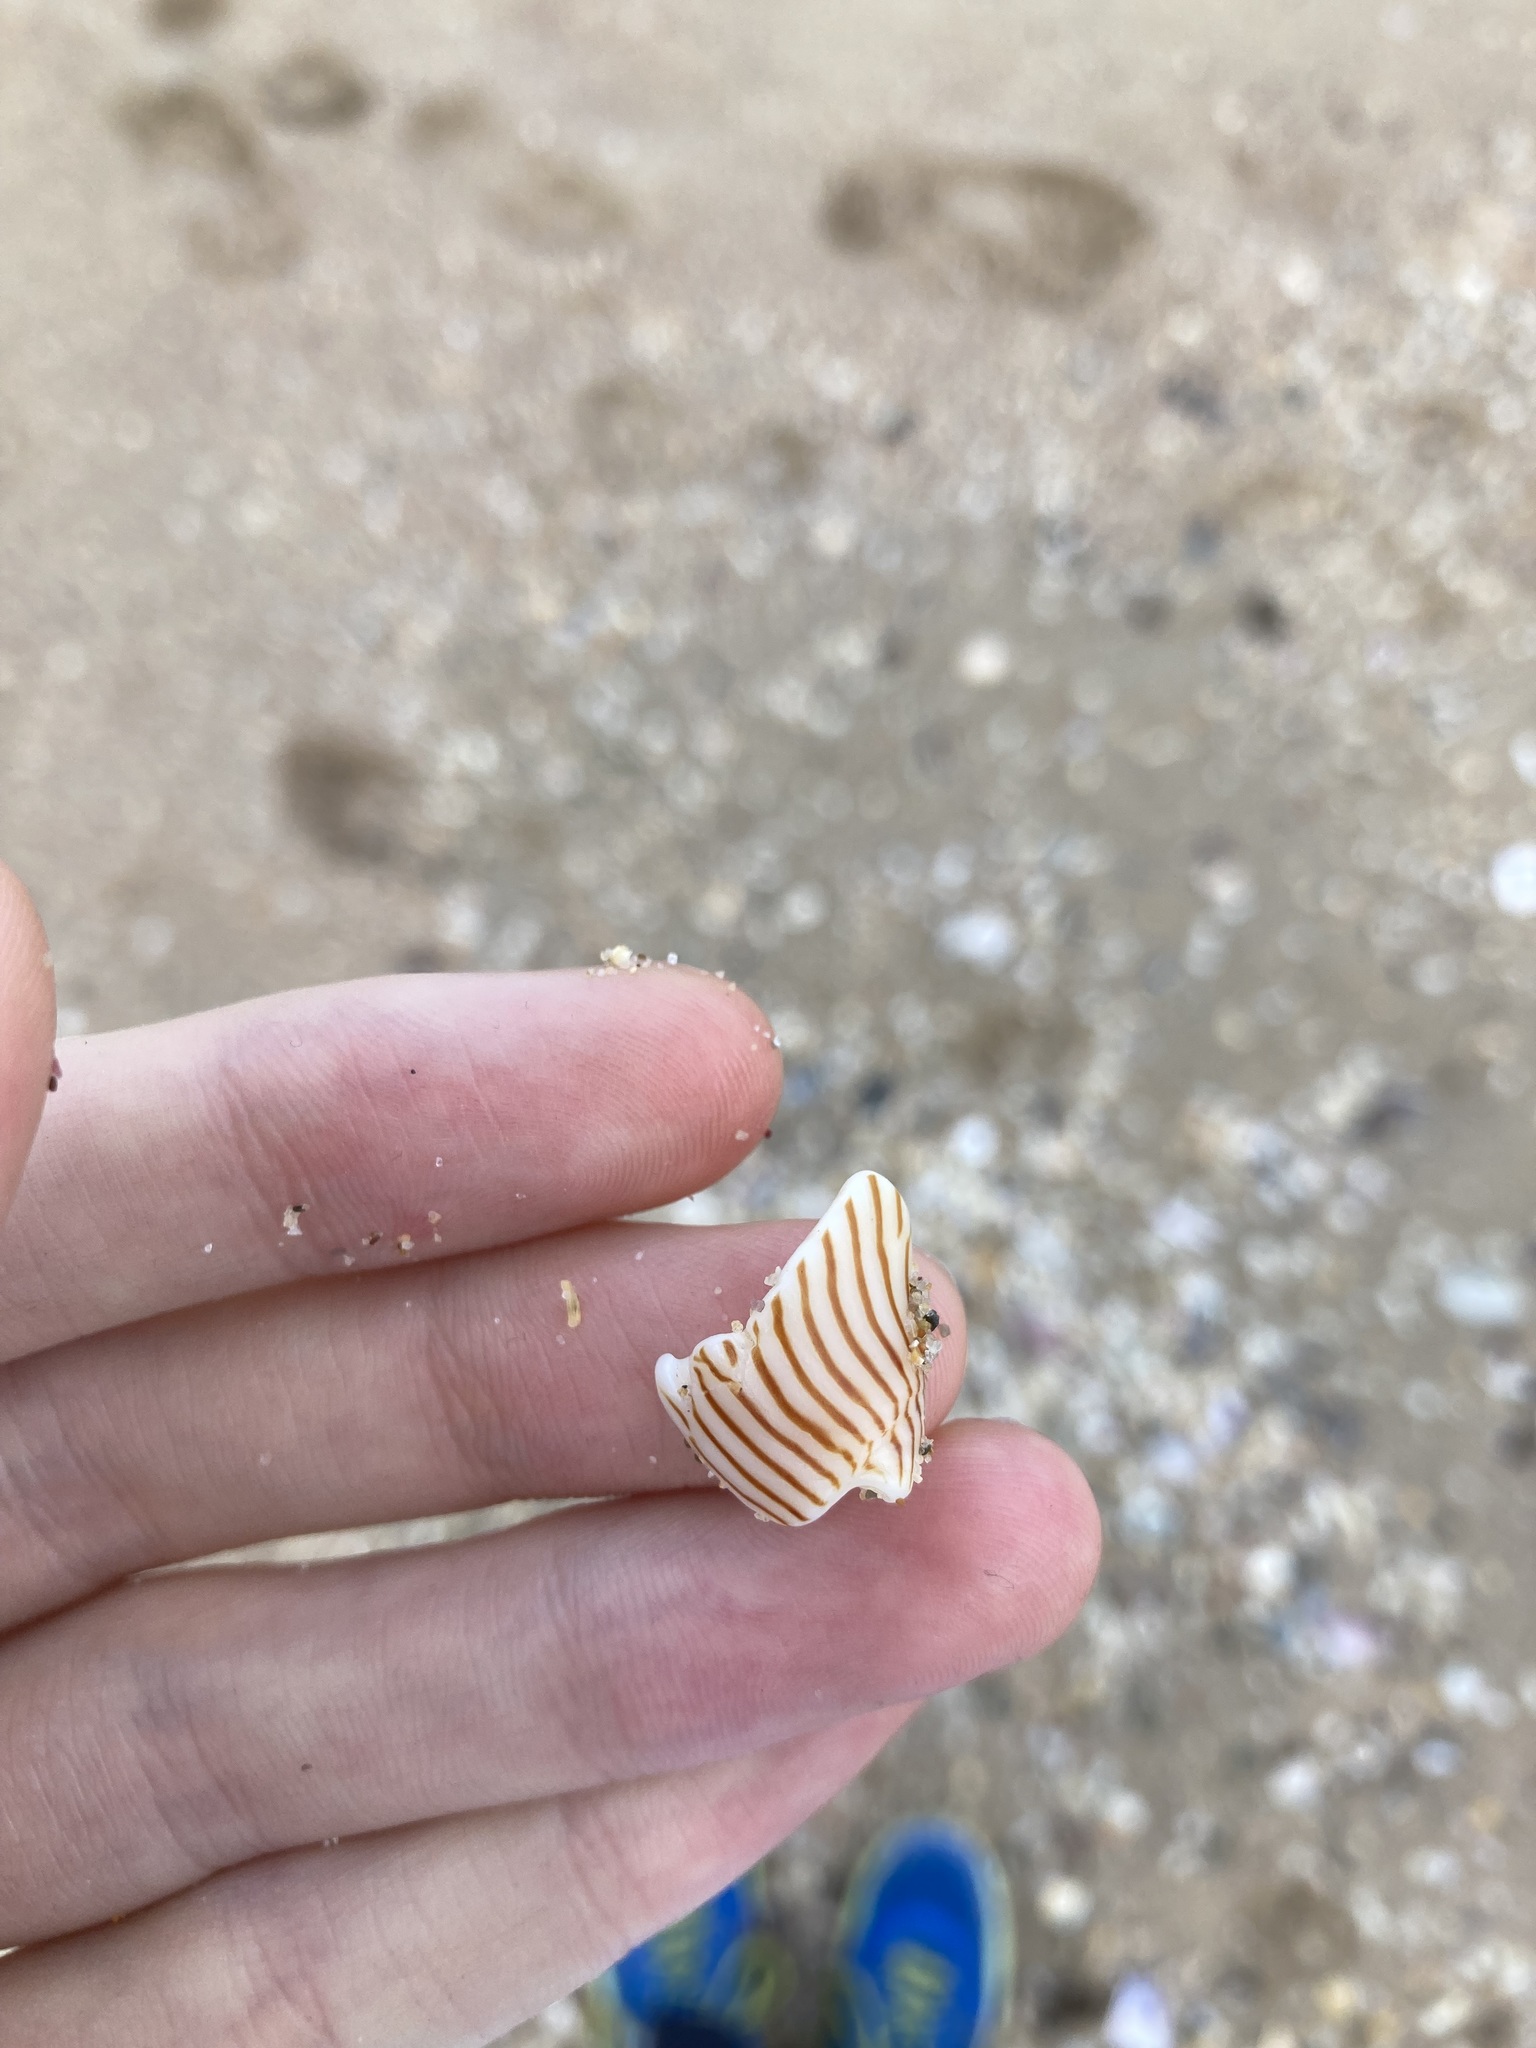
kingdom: Animalia
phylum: Mollusca
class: Gastropoda
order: Neogastropoda
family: Volutidae
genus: Amoria
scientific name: Amoria zebra
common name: Zebra volute
